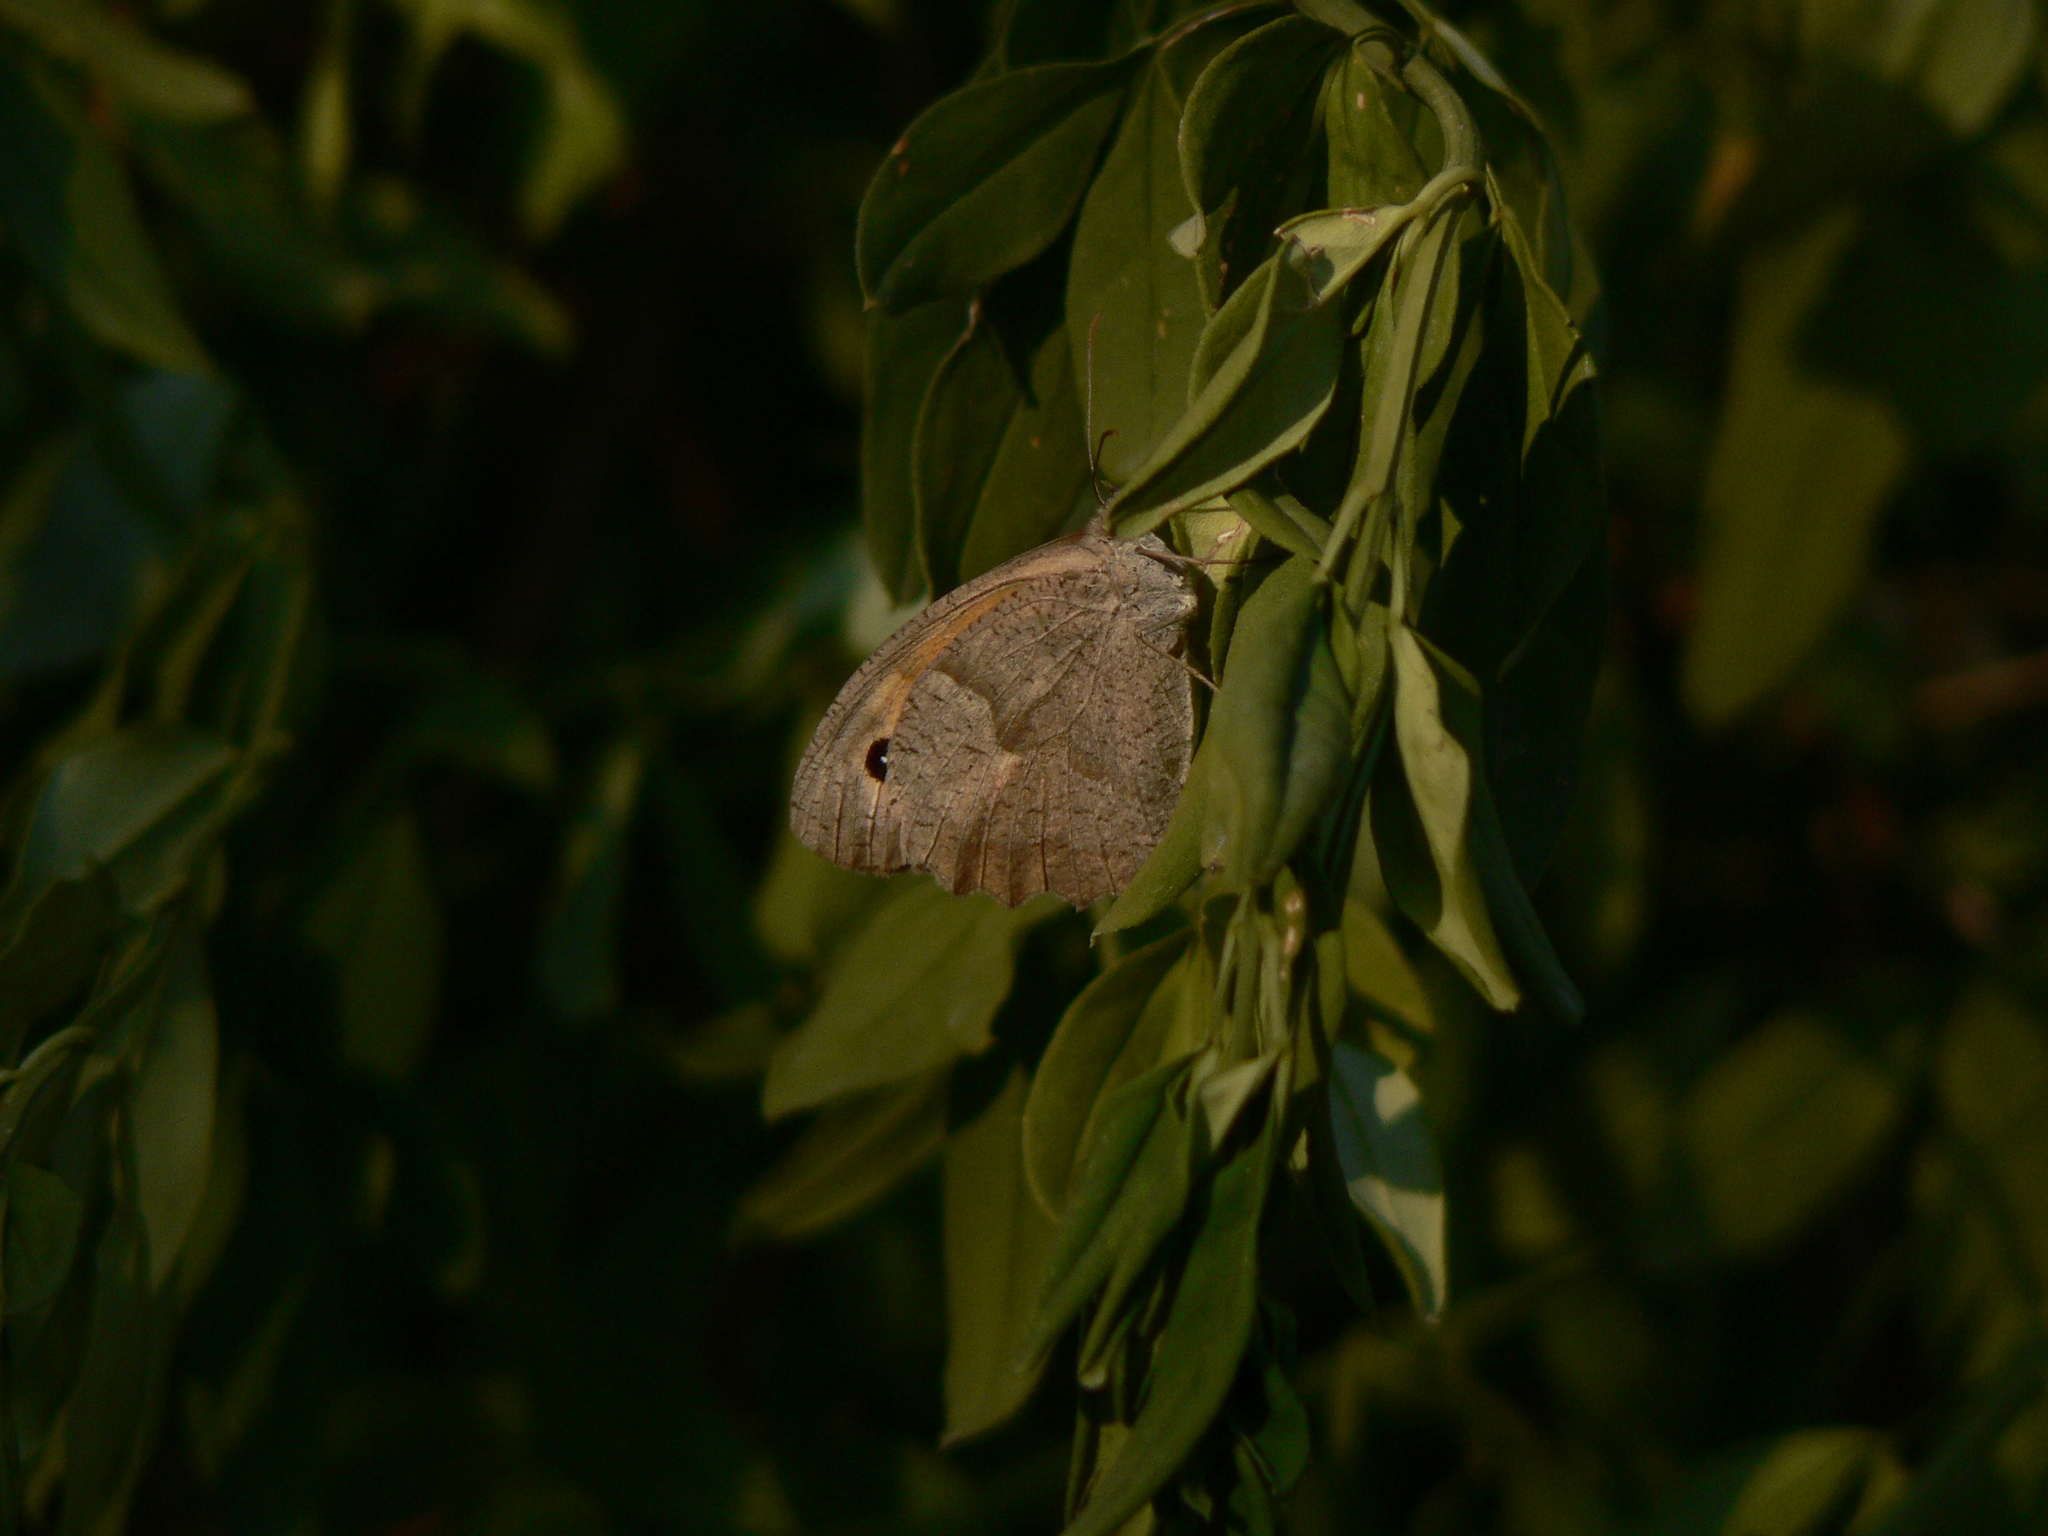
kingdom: Animalia
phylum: Arthropoda
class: Insecta
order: Lepidoptera
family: Nymphalidae
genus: Maniola
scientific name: Maniola jurtina
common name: Meadow brown
